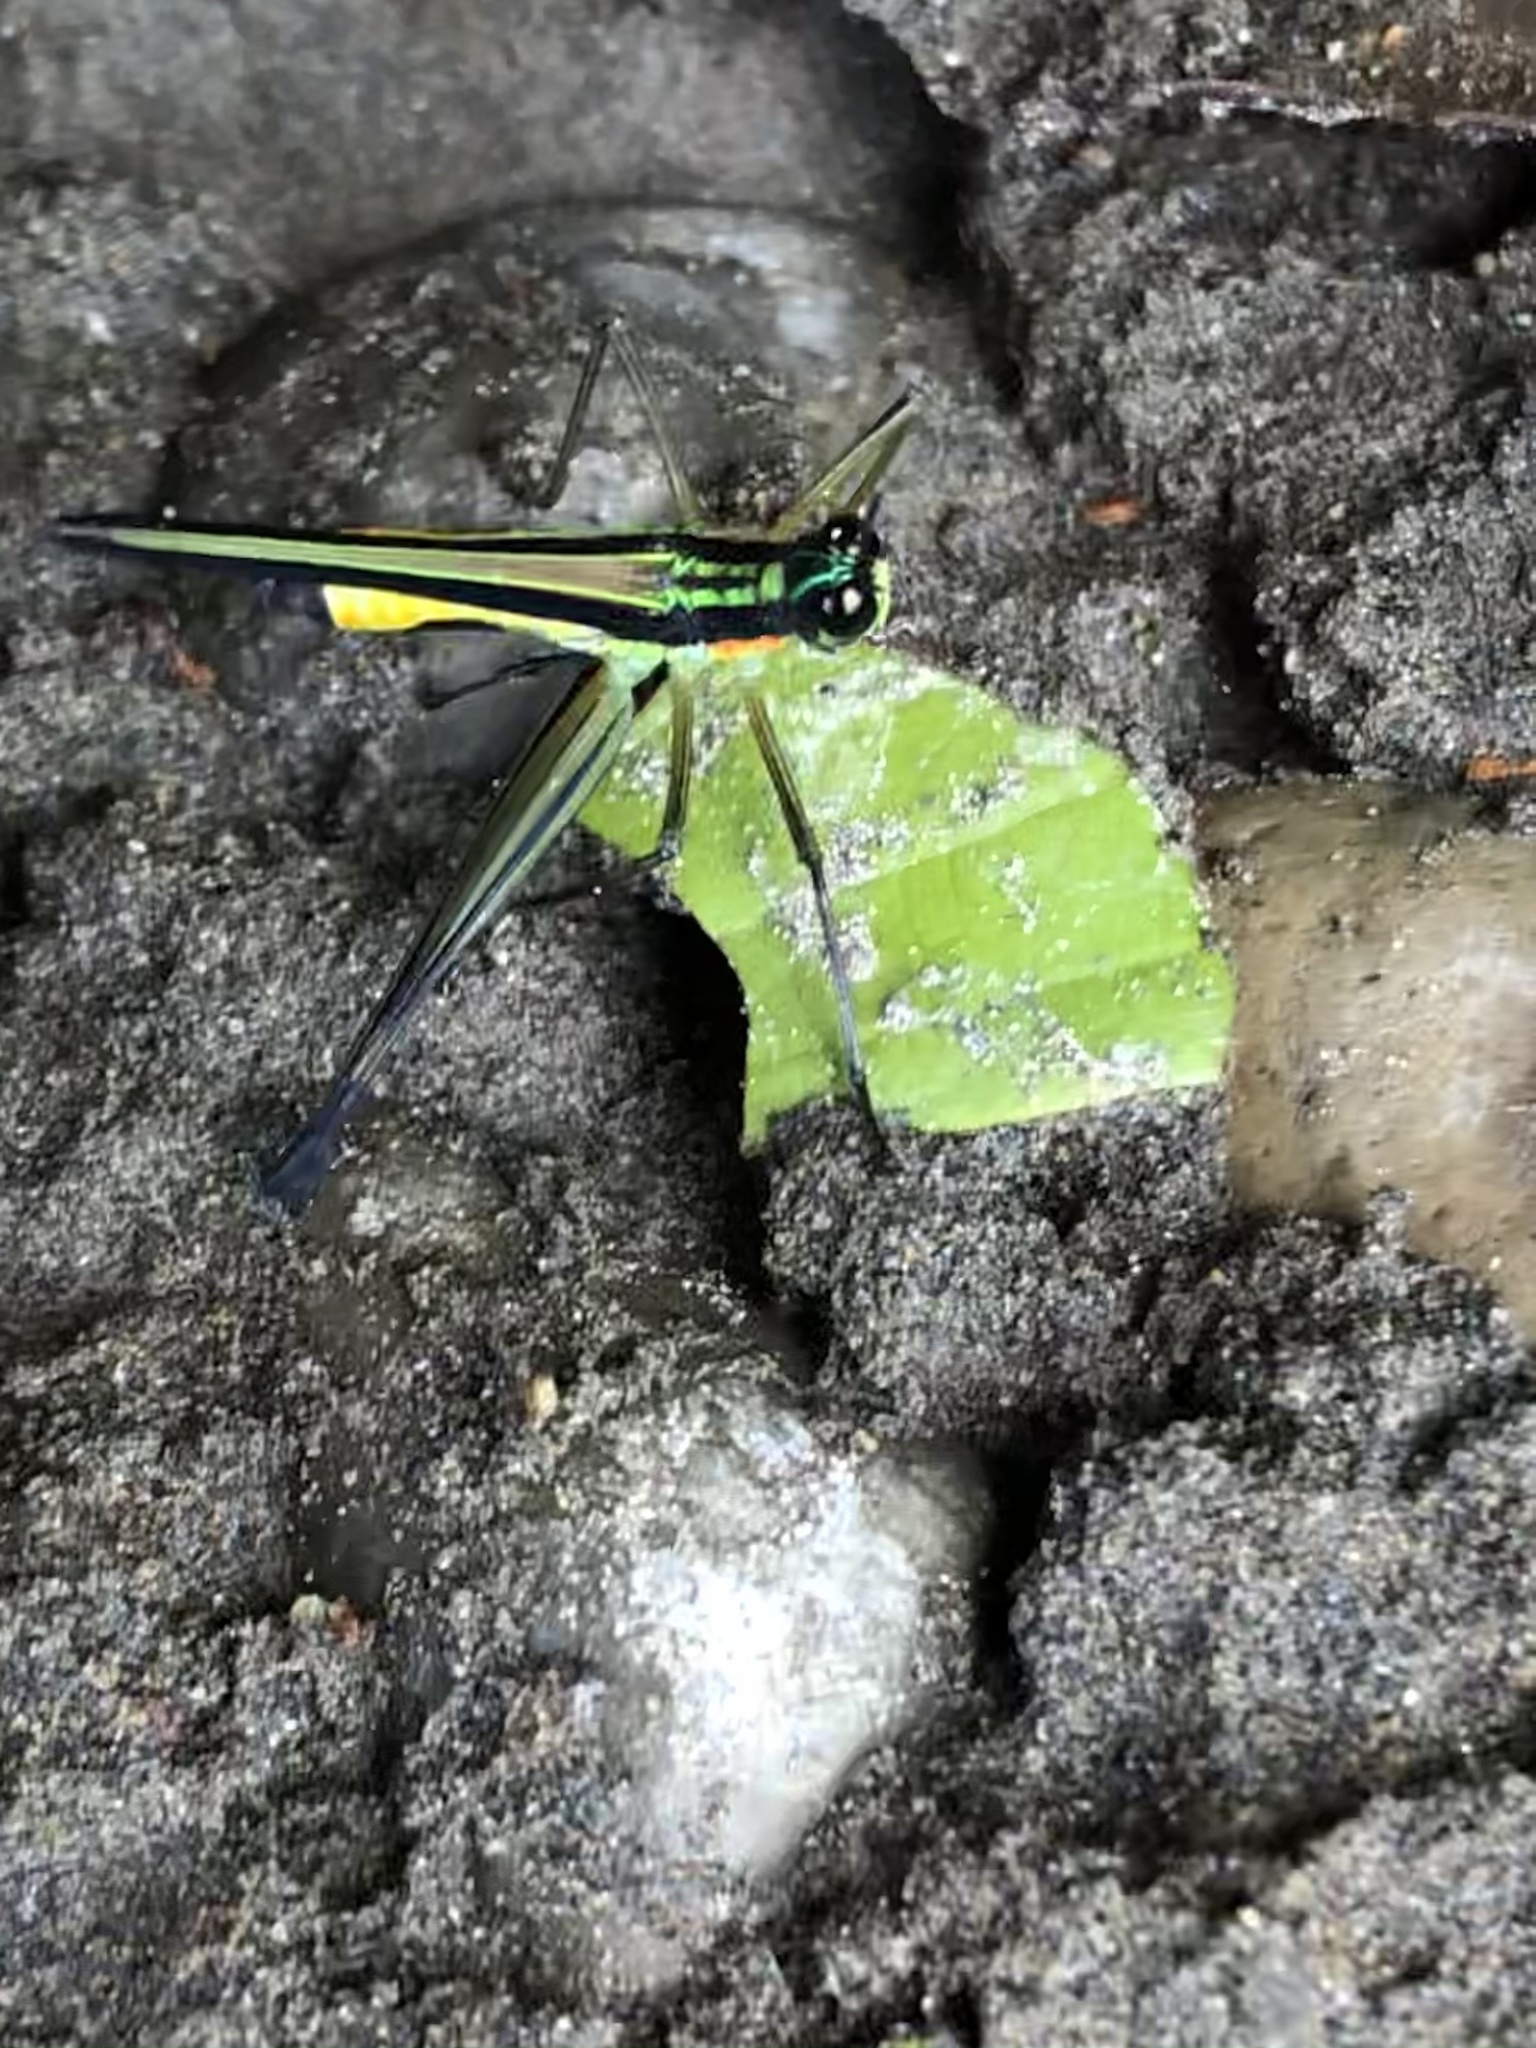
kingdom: Animalia
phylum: Arthropoda
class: Insecta
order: Orthoptera
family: Eumastacidae
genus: Paramastax
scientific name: Paramastax nigra
